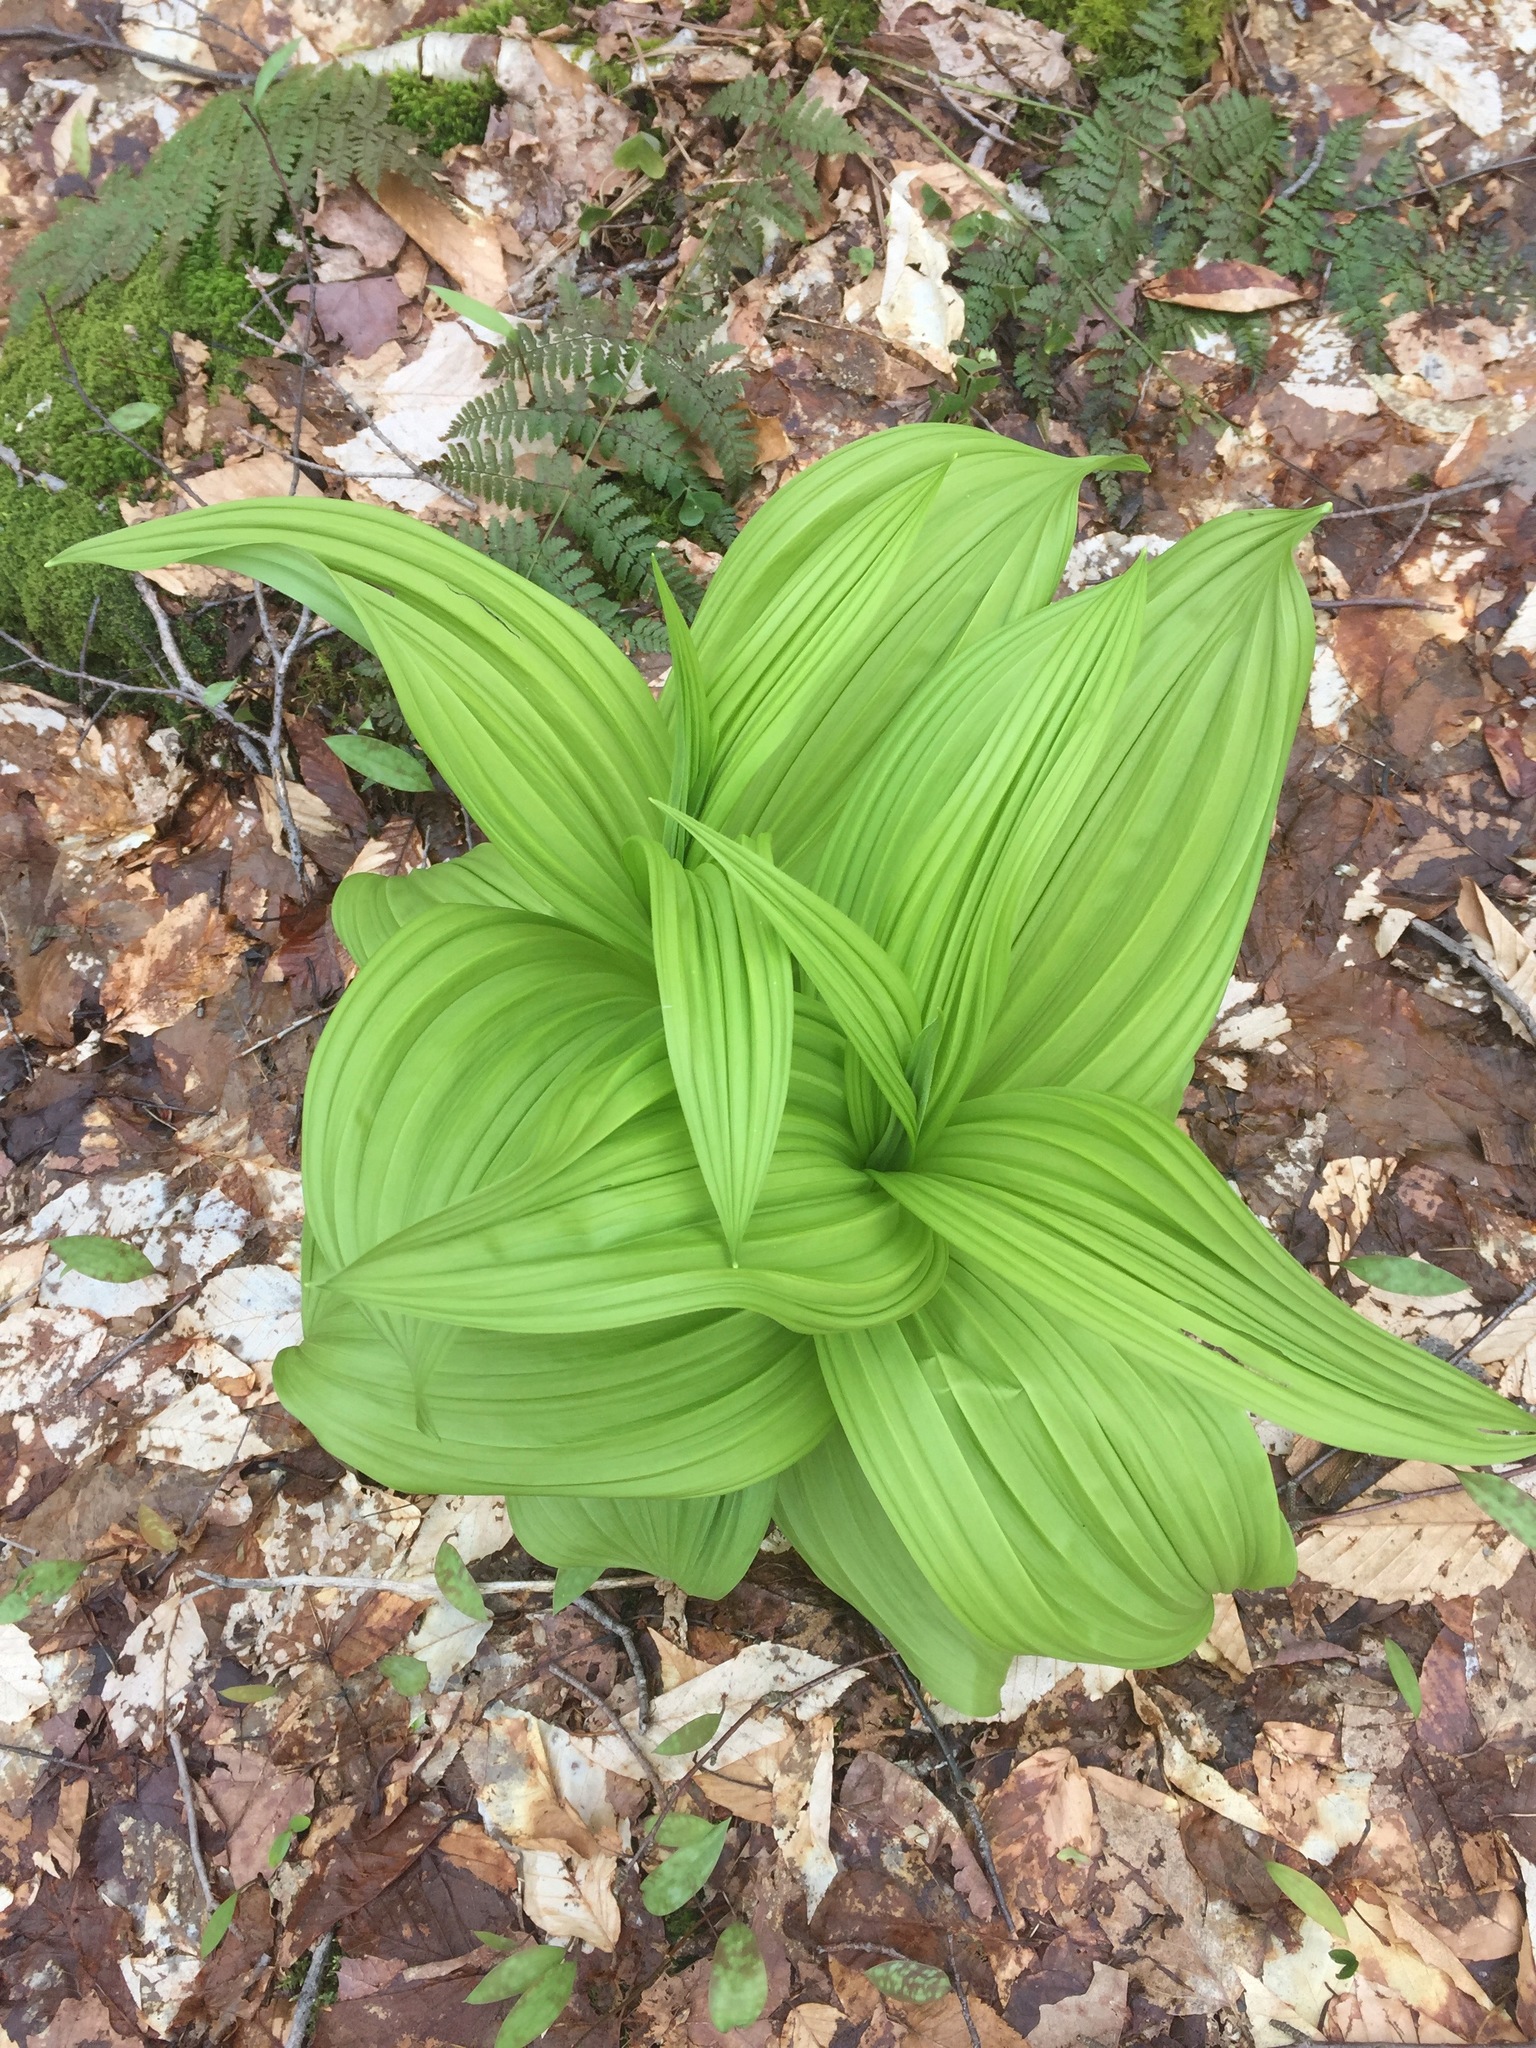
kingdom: Plantae
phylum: Tracheophyta
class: Liliopsida
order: Liliales
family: Melanthiaceae
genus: Veratrum
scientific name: Veratrum viride
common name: American false hellebore
